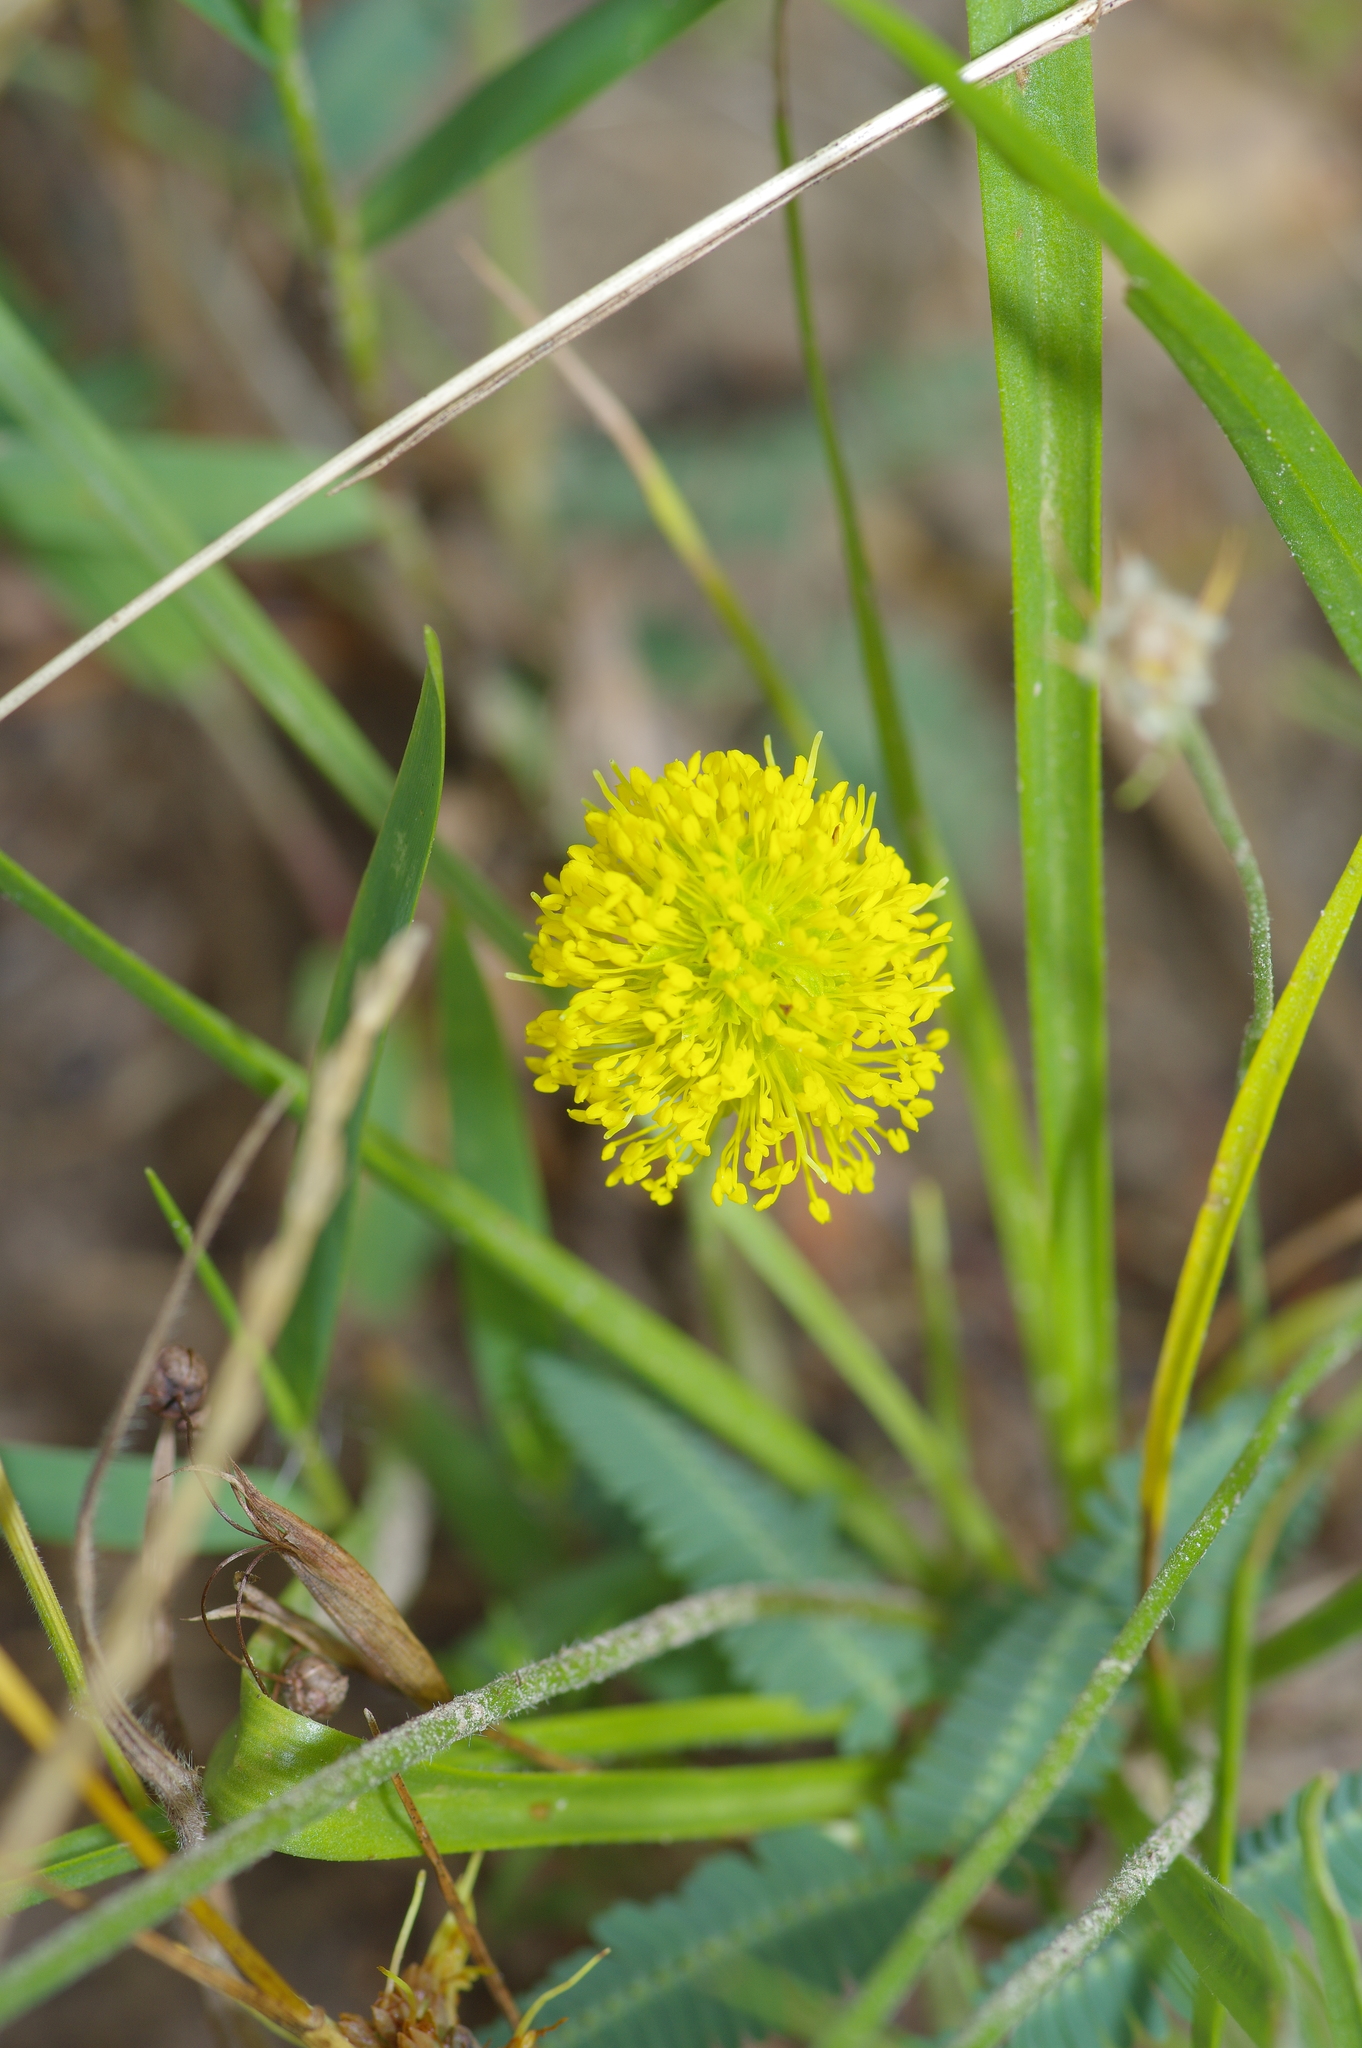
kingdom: Plantae
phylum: Tracheophyta
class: Magnoliopsida
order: Fabales
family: Fabaceae
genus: Neptunia
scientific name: Neptunia lutea
